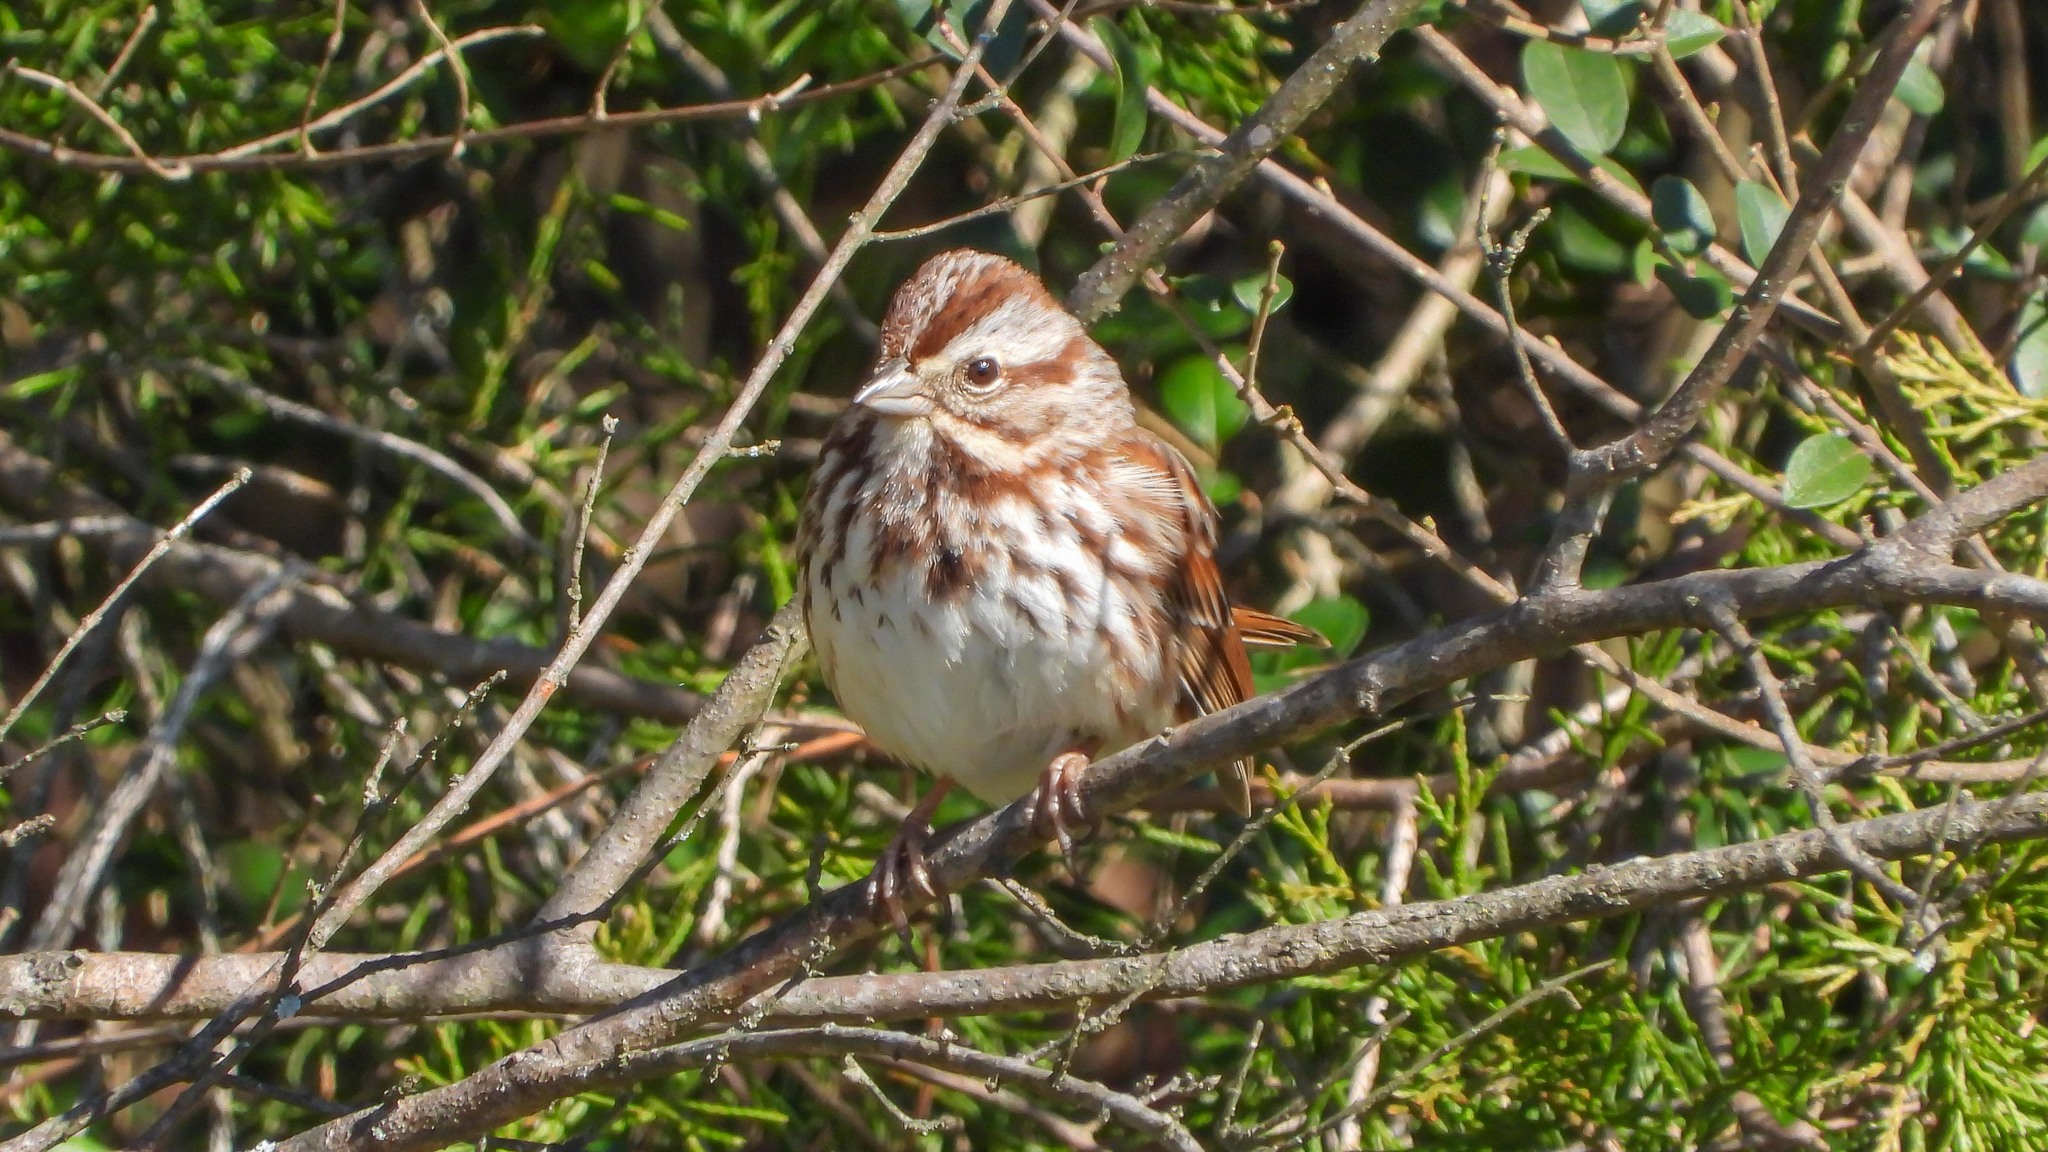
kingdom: Animalia
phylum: Chordata
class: Aves
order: Passeriformes
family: Passerellidae
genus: Melospiza
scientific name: Melospiza melodia
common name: Song sparrow
